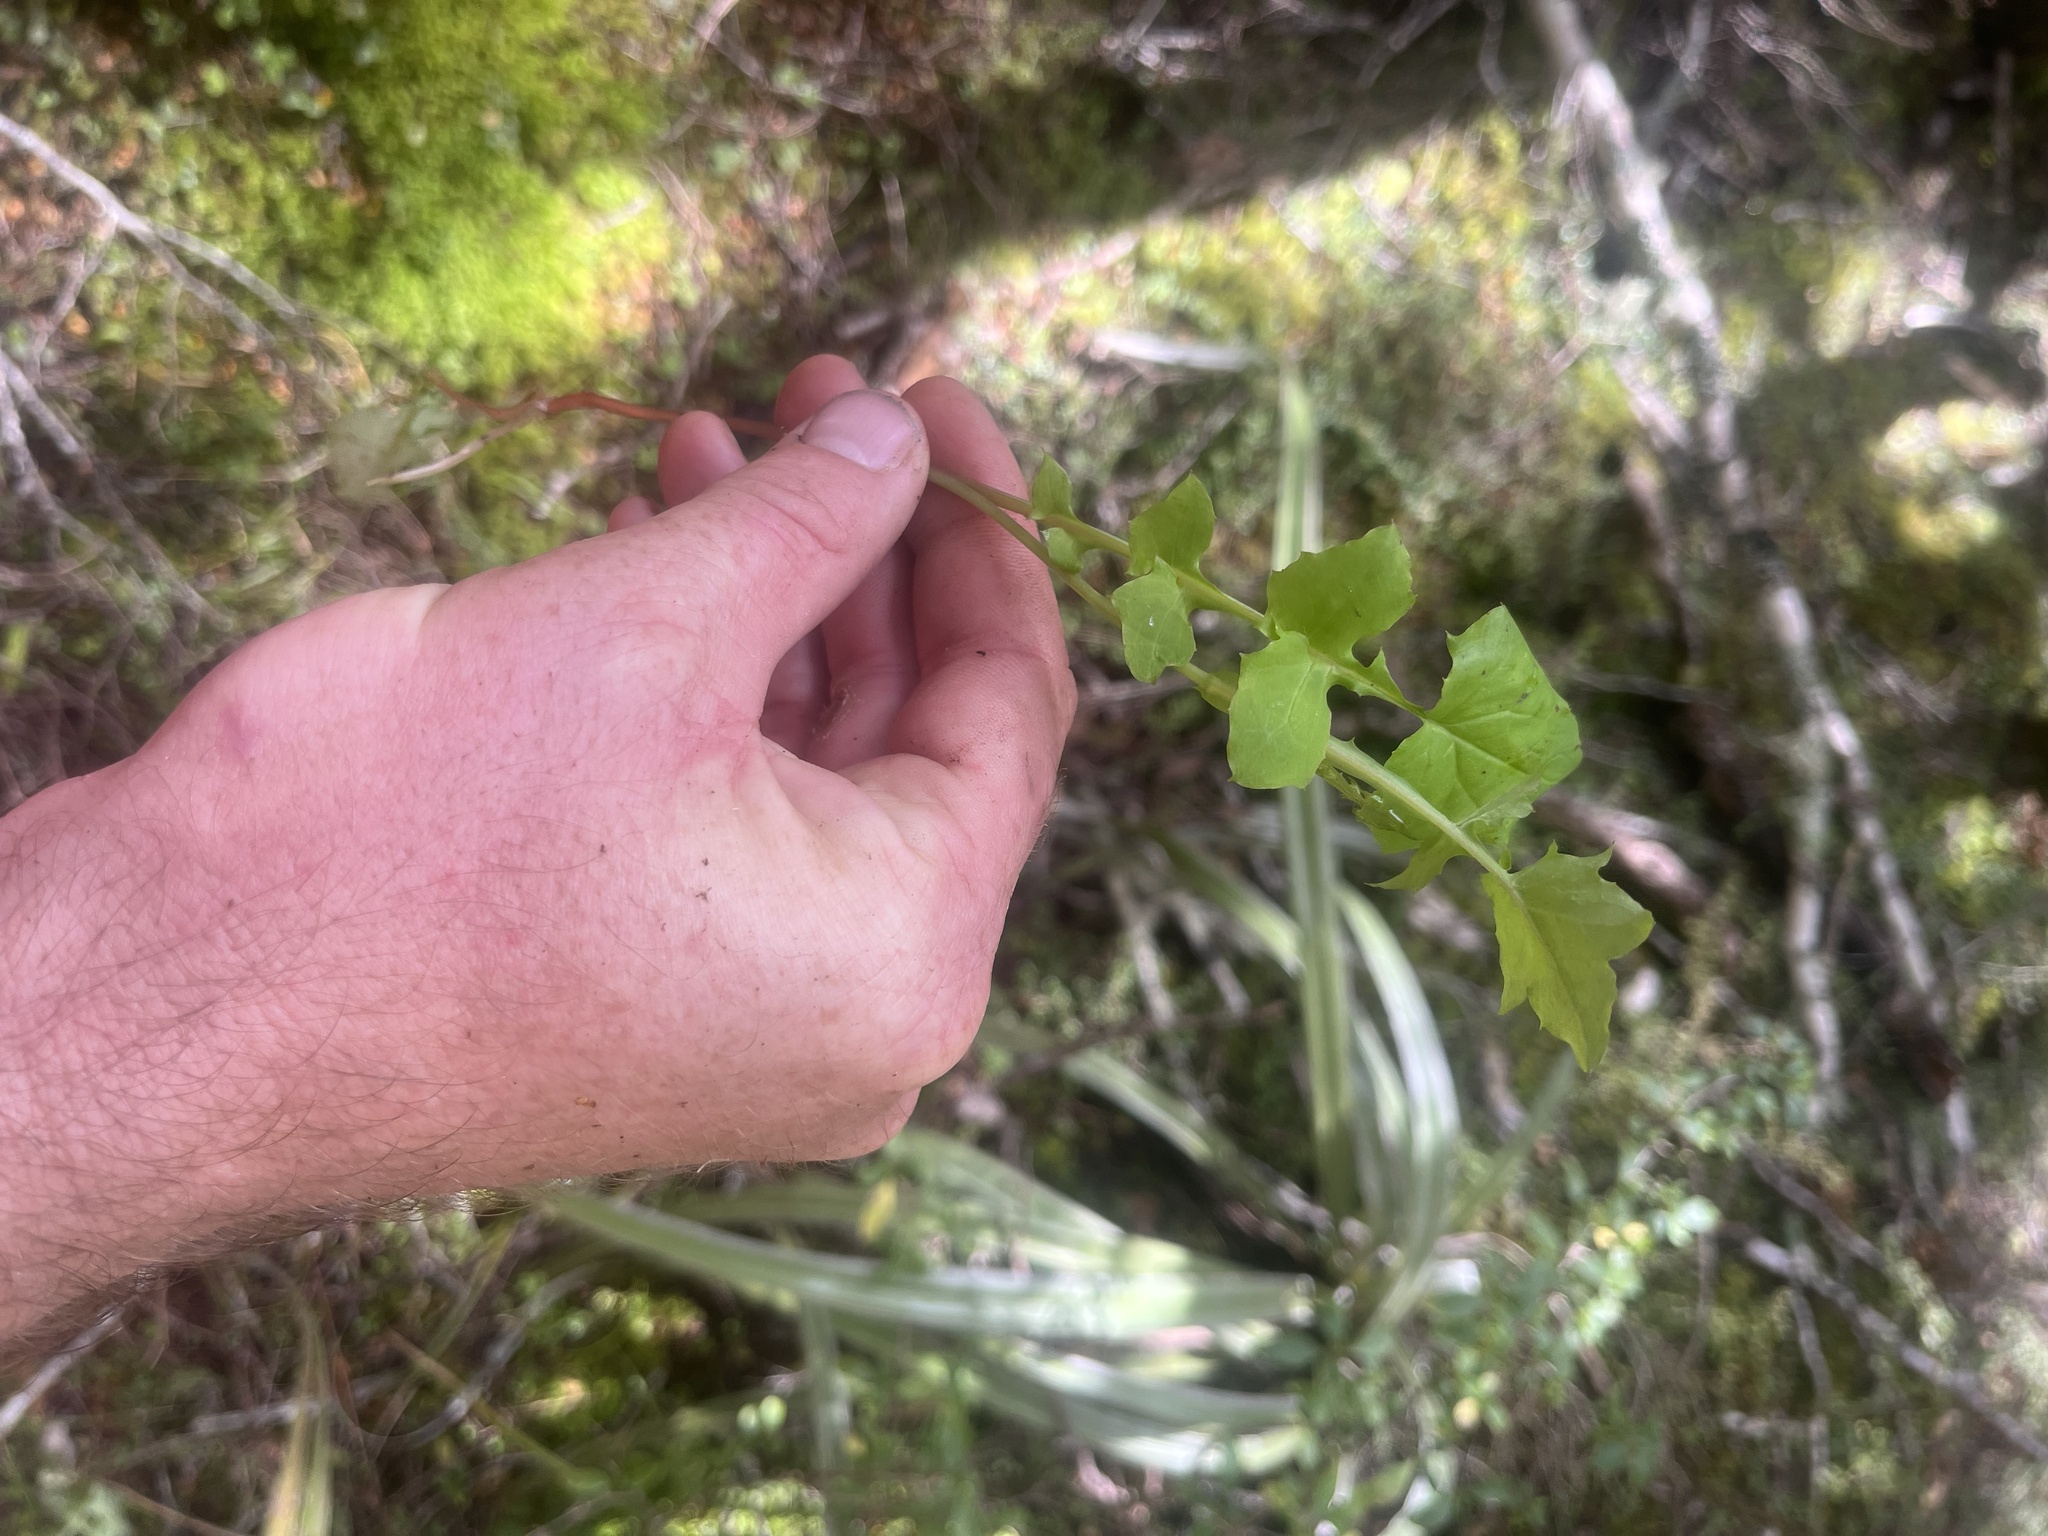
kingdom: Plantae
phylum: Tracheophyta
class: Magnoliopsida
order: Asterales
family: Asteraceae
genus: Mycelis
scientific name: Mycelis muralis
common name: Wall lettuce
